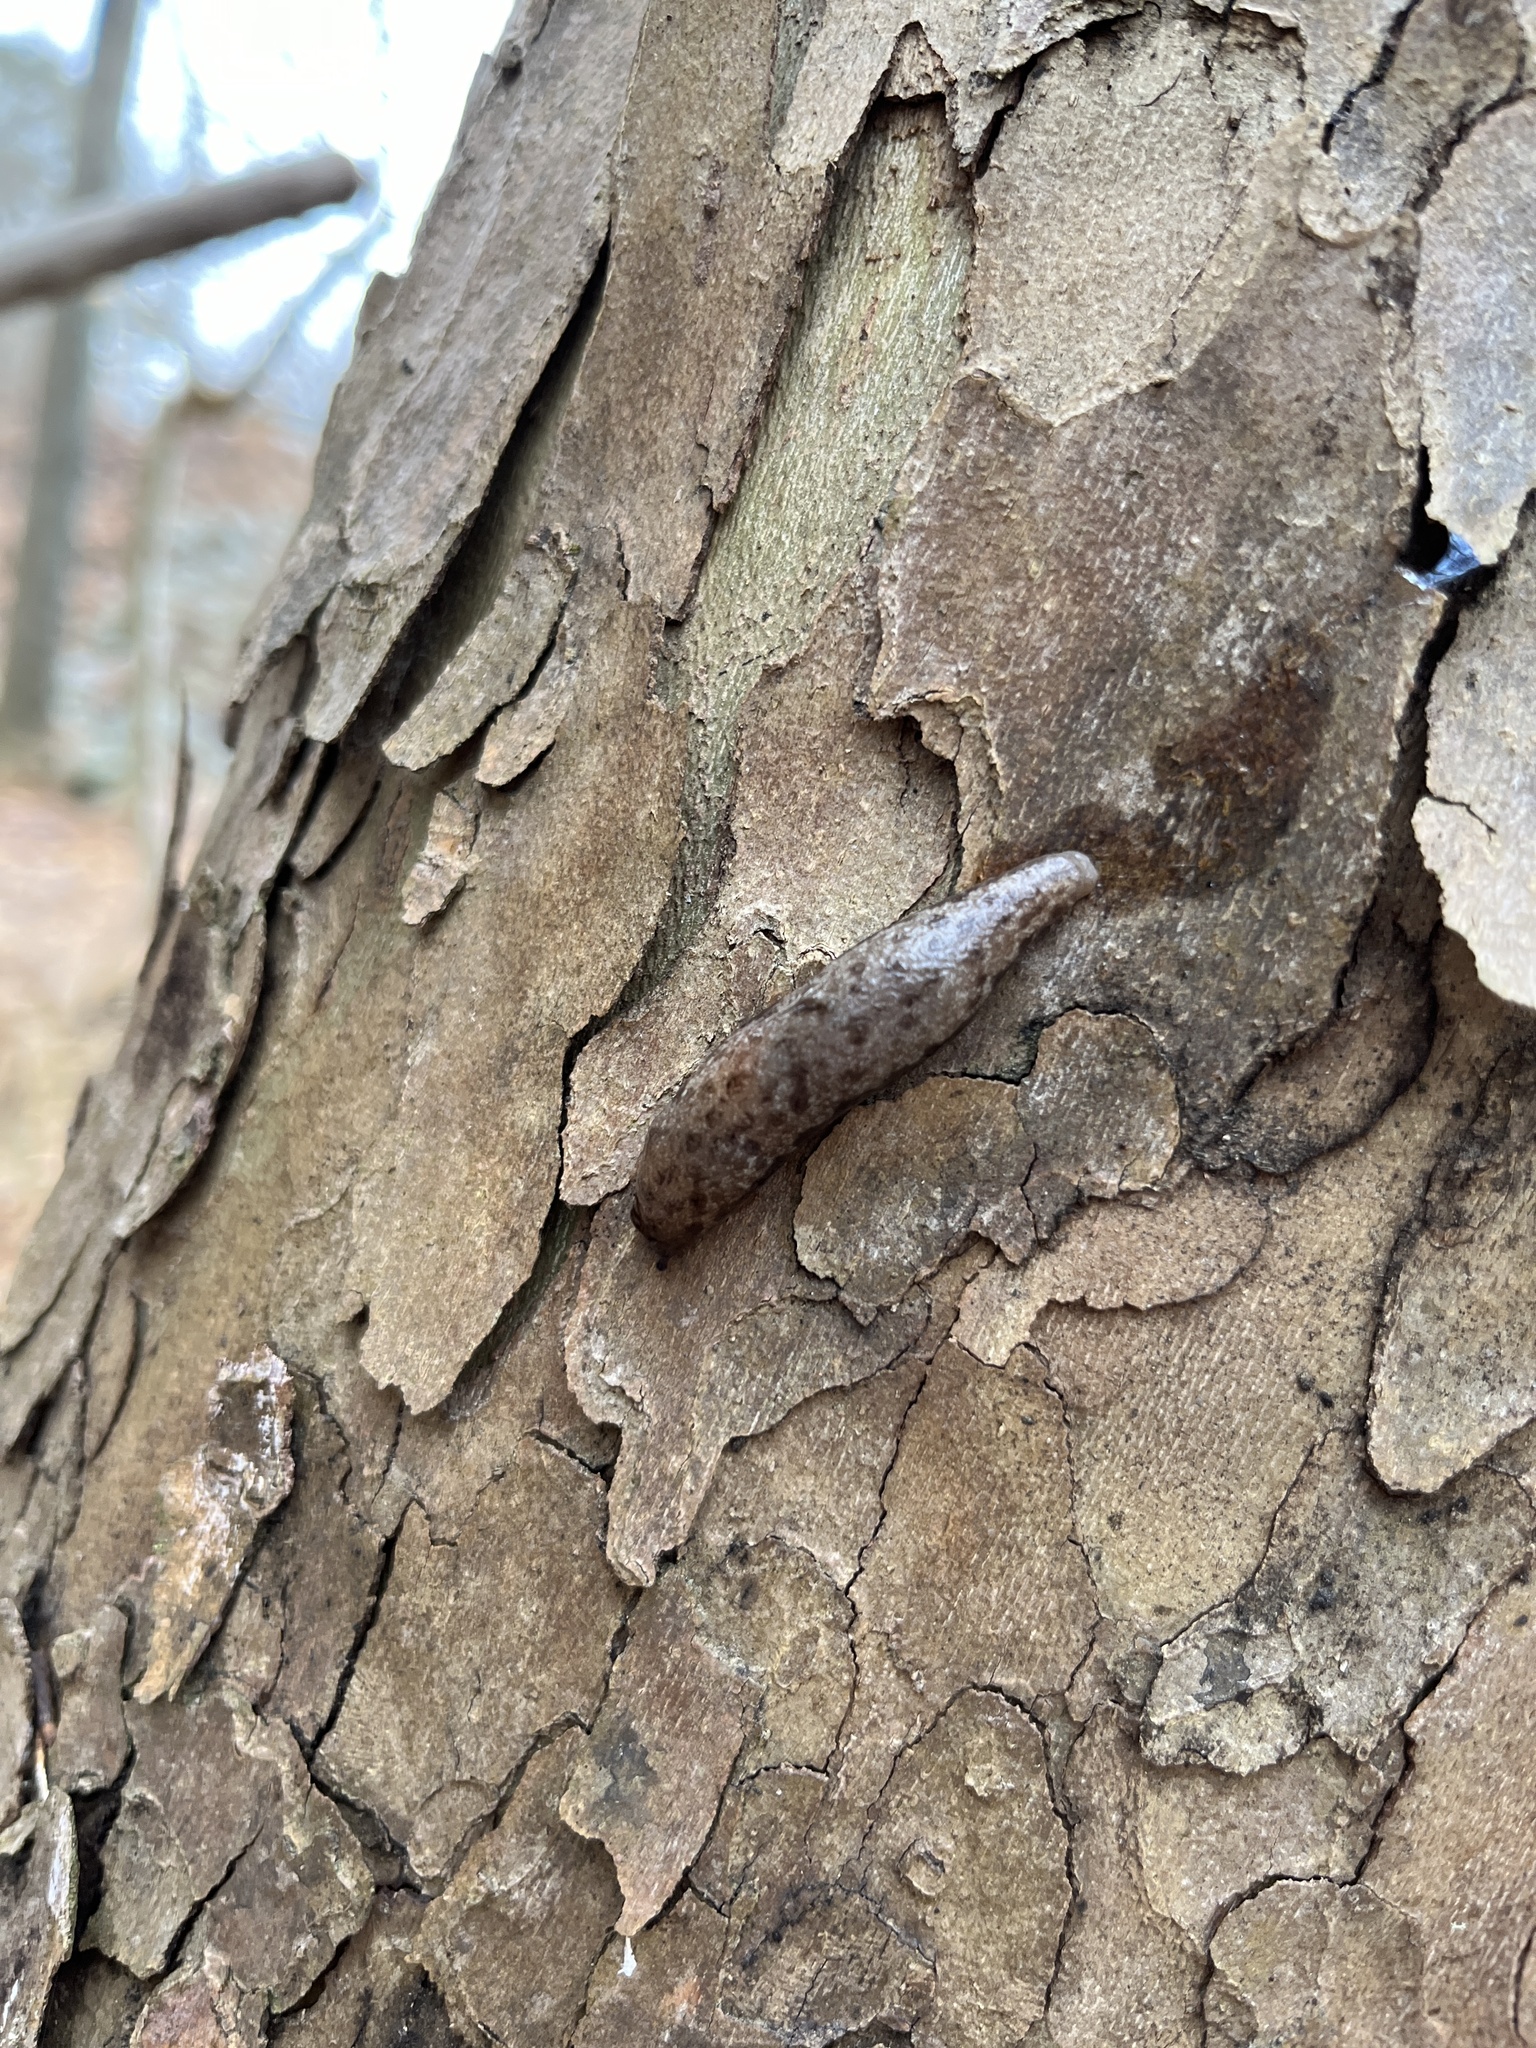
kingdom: Animalia
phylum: Mollusca
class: Gastropoda
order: Stylommatophora
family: Philomycidae
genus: Megapallifera
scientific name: Megapallifera mutabilis
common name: Changeable mantleslug
